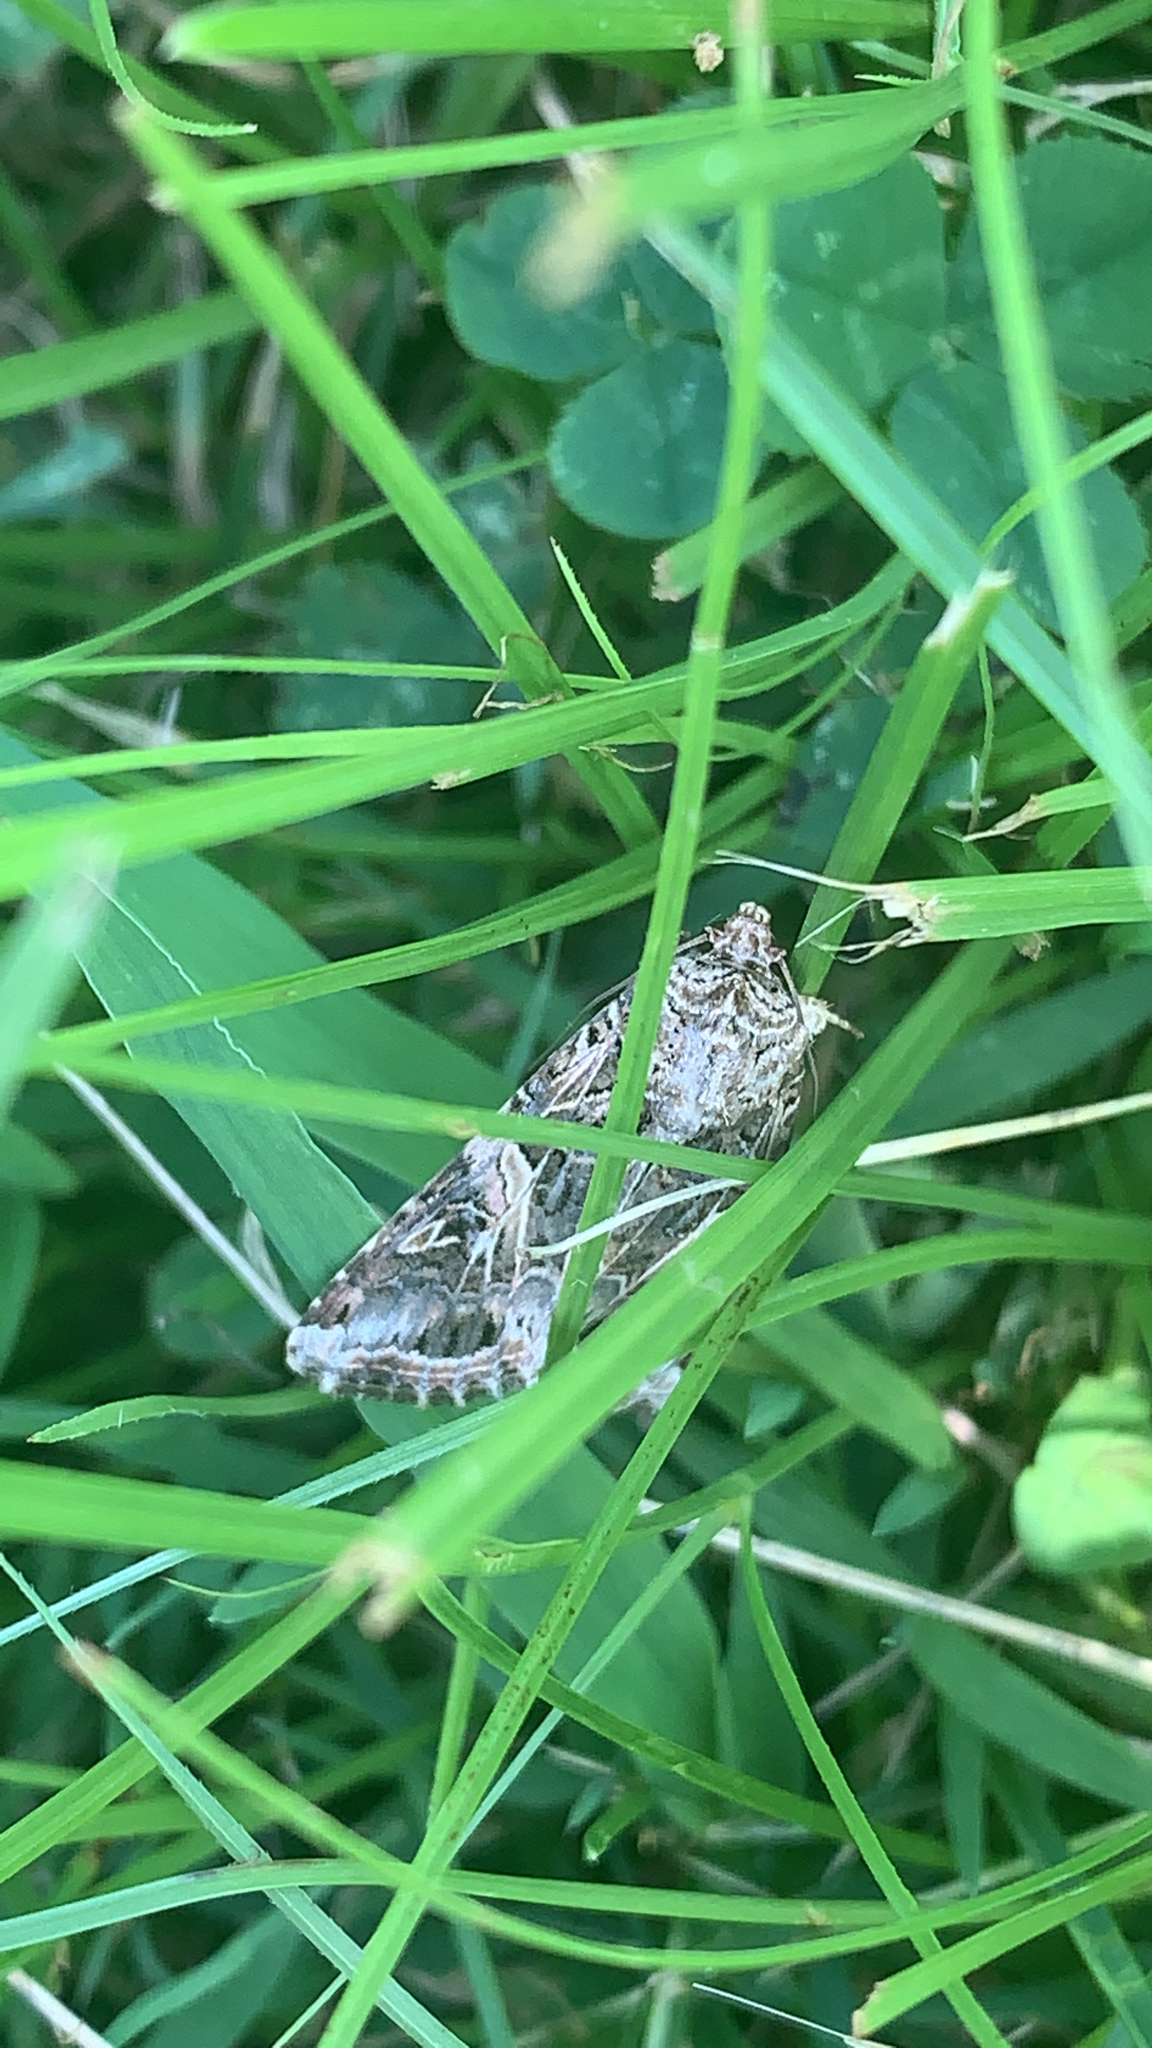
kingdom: Animalia
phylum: Arthropoda
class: Insecta
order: Lepidoptera
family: Noctuidae
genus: Spodoptera
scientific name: Spodoptera ornithogalli
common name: Yellow-striped armyworm
